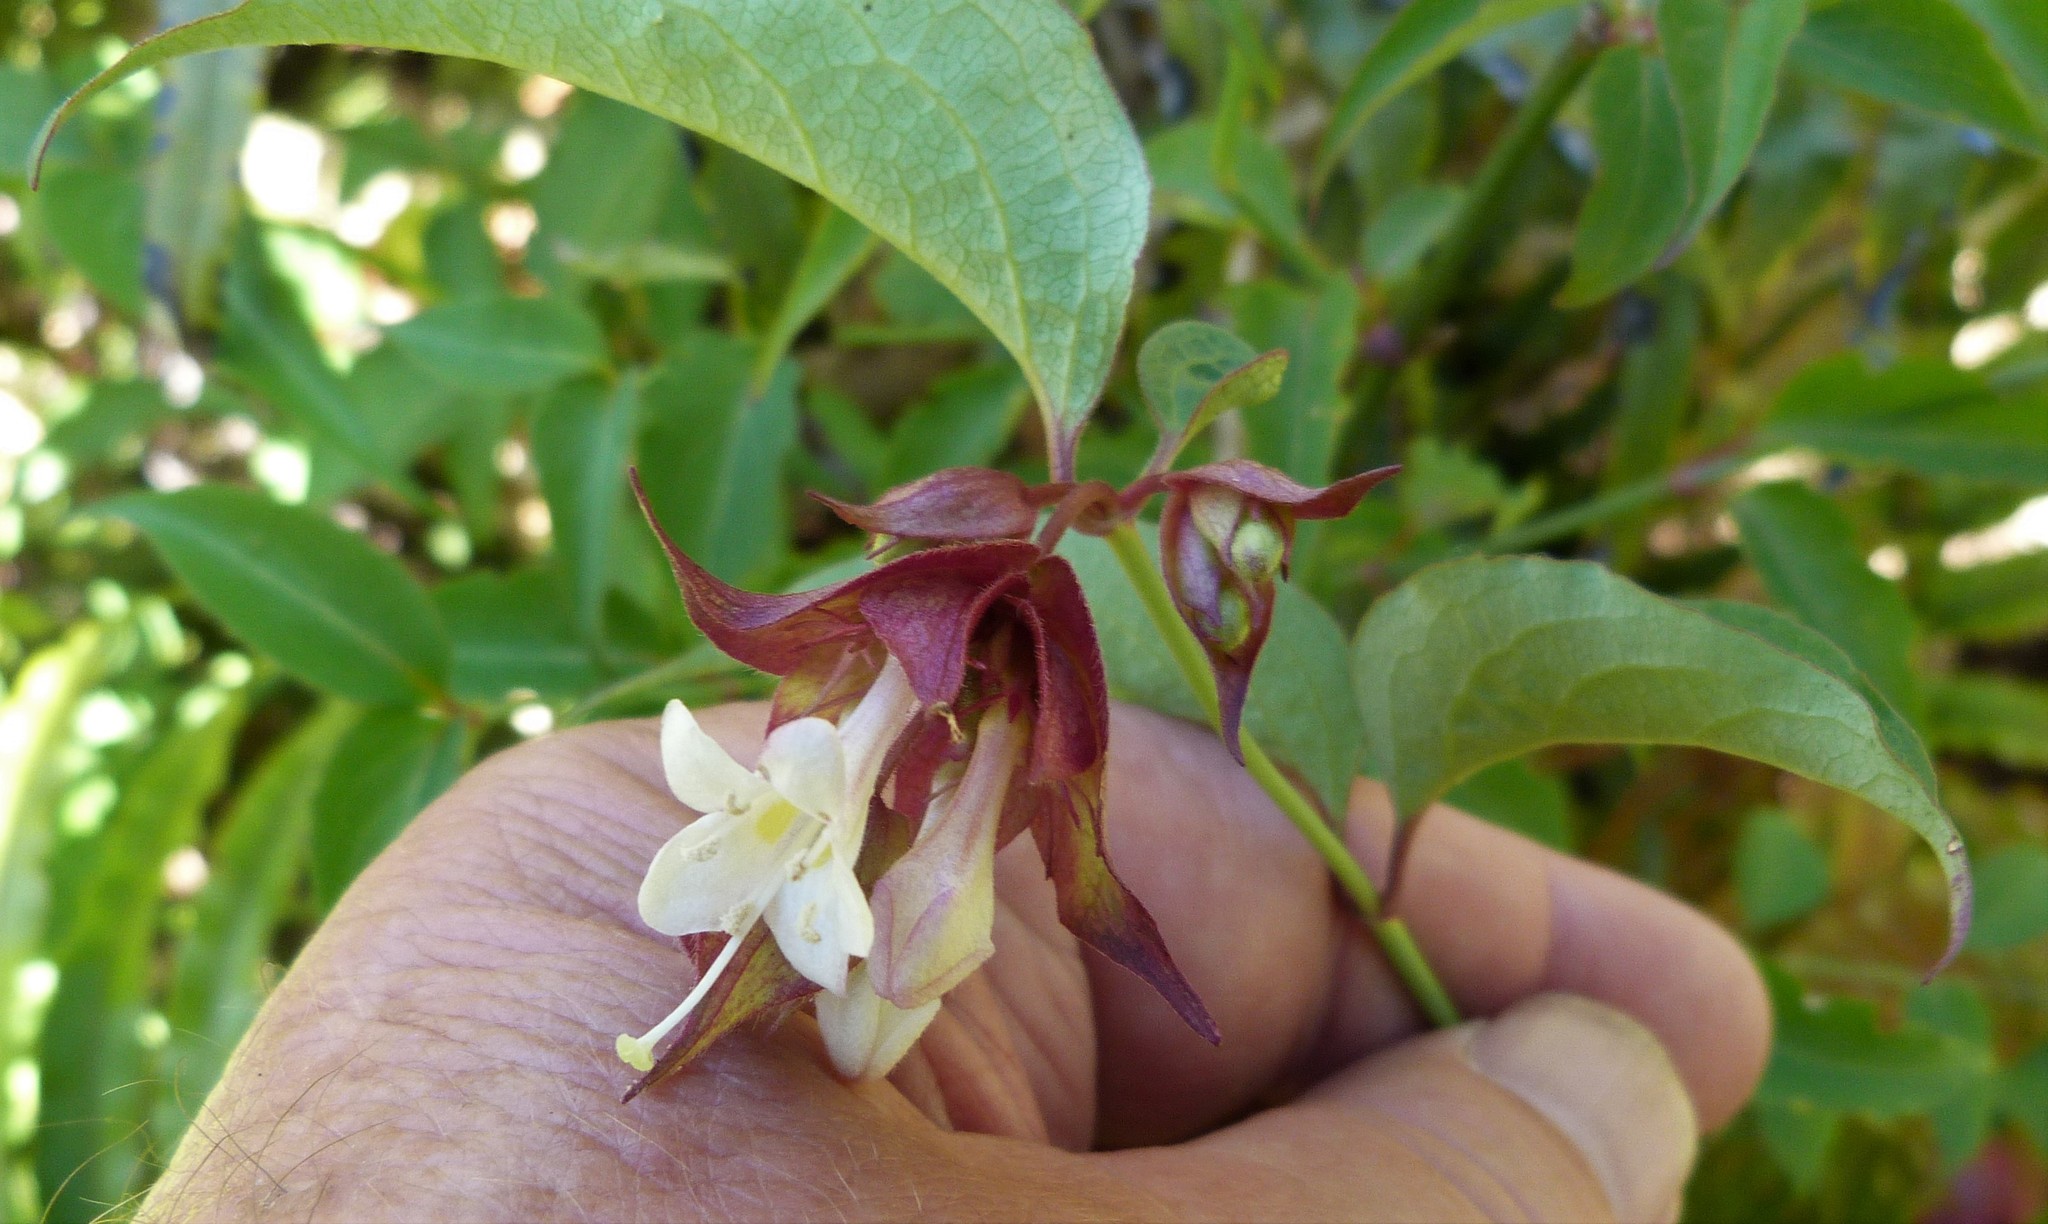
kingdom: Plantae
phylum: Tracheophyta
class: Magnoliopsida
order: Dipsacales
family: Caprifoliaceae
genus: Leycesteria
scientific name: Leycesteria formosa
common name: Himalayan honeysuckle
